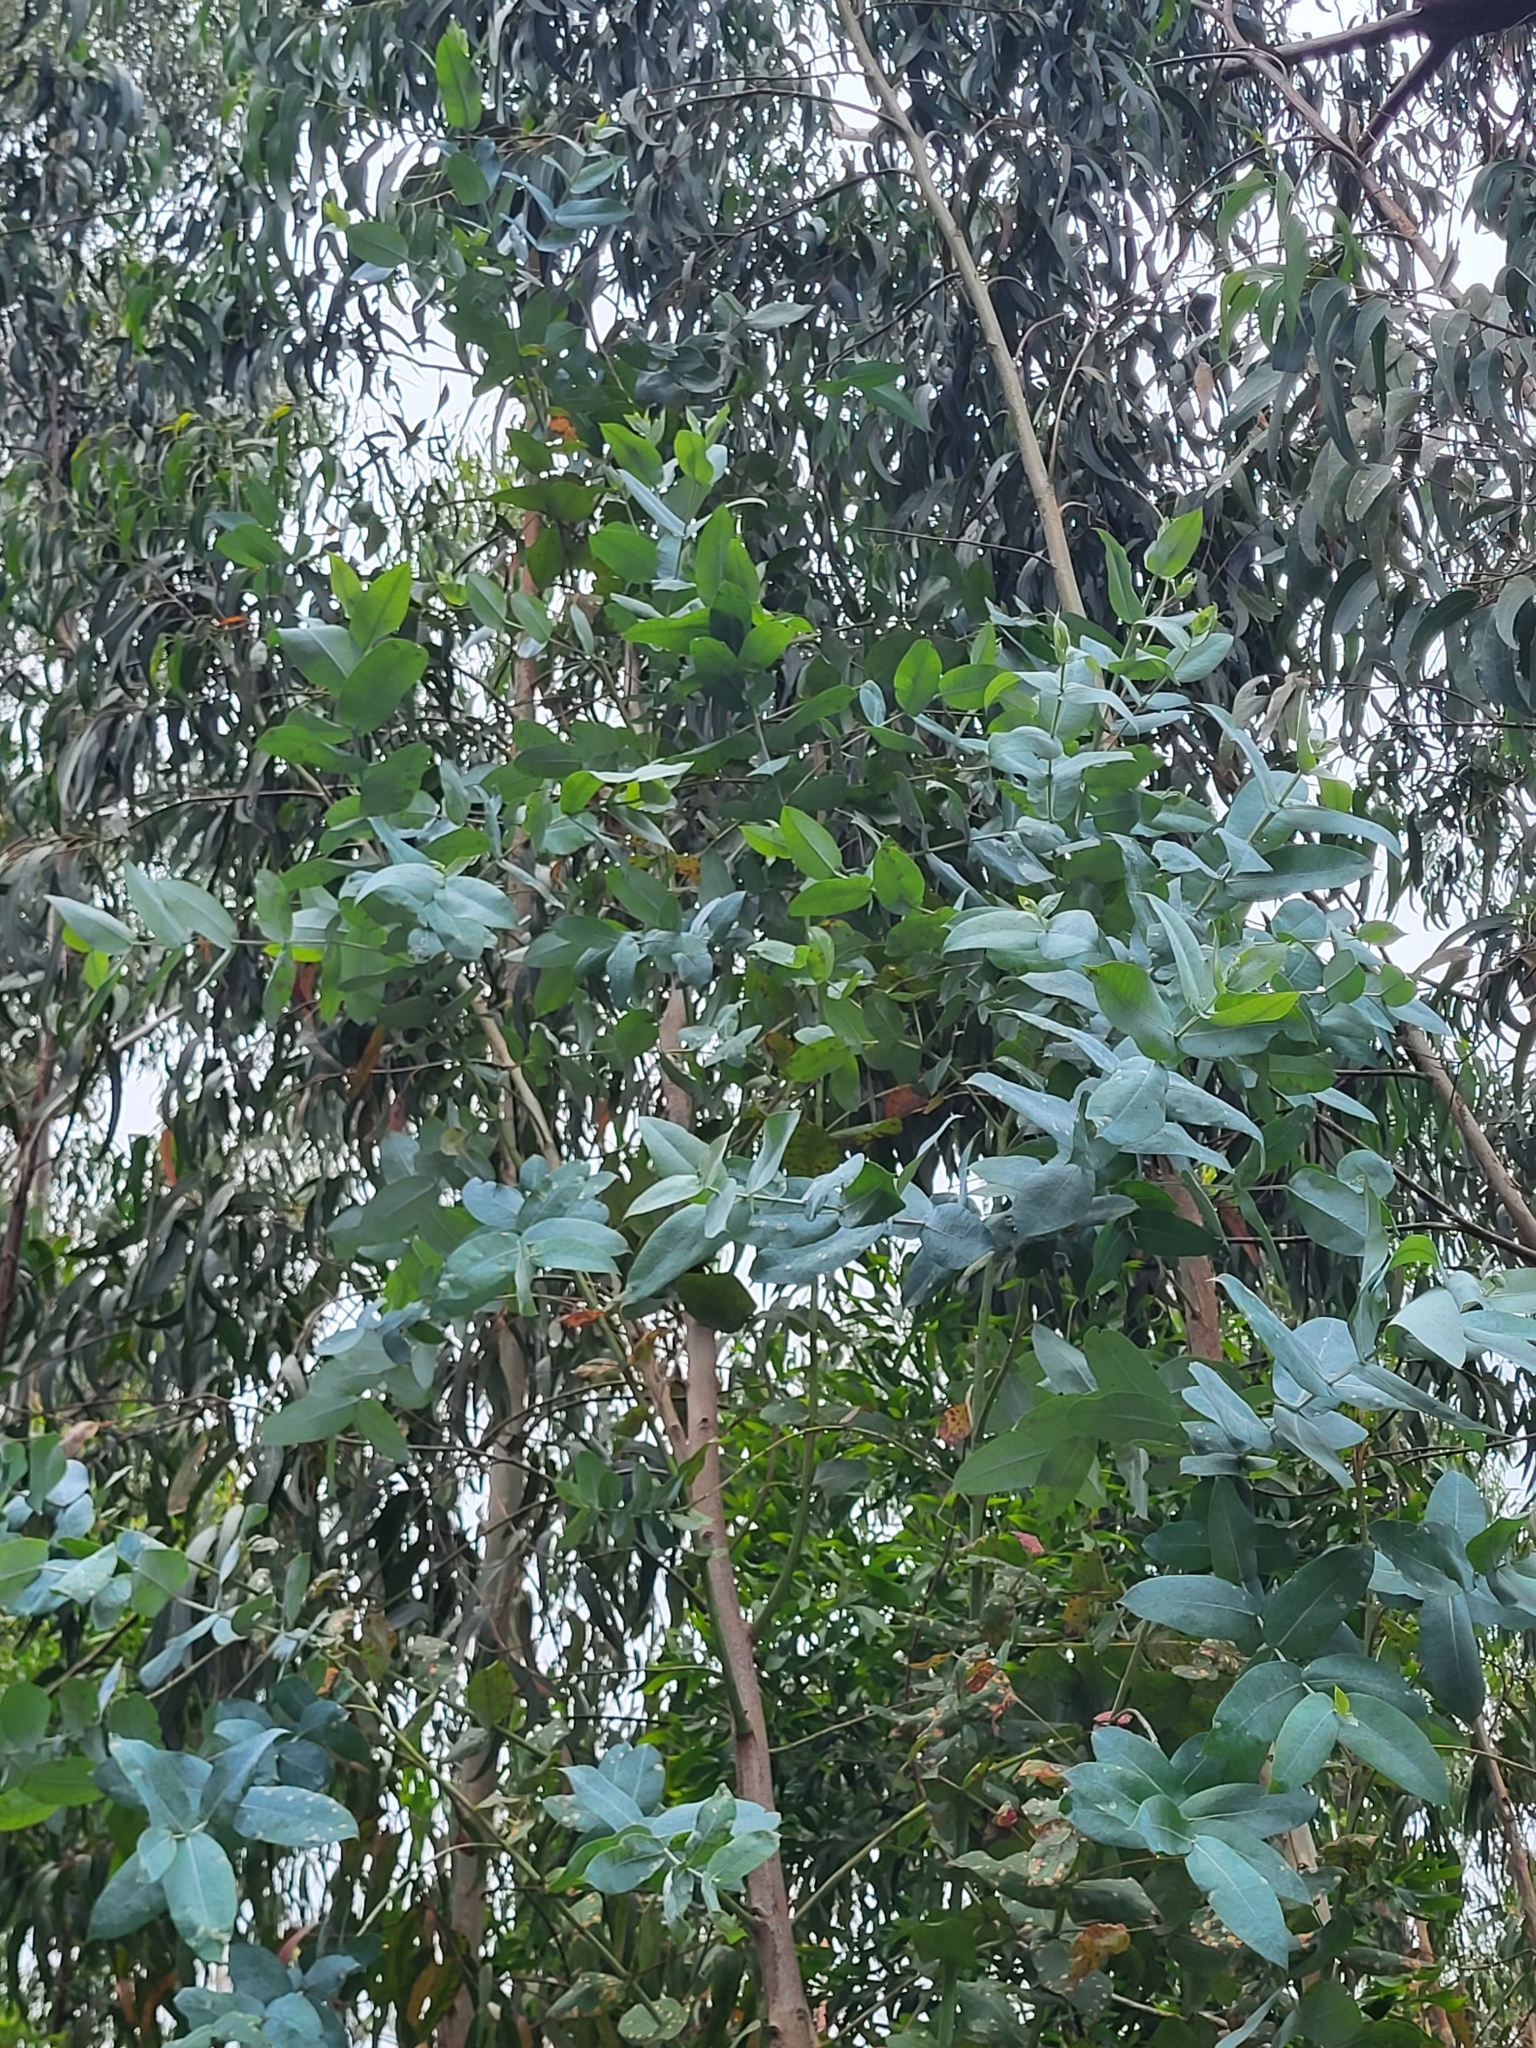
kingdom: Plantae
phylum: Tracheophyta
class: Magnoliopsida
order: Myrtales
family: Myrtaceae
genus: Eucalyptus
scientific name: Eucalyptus globulus
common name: Southern blue-gum
